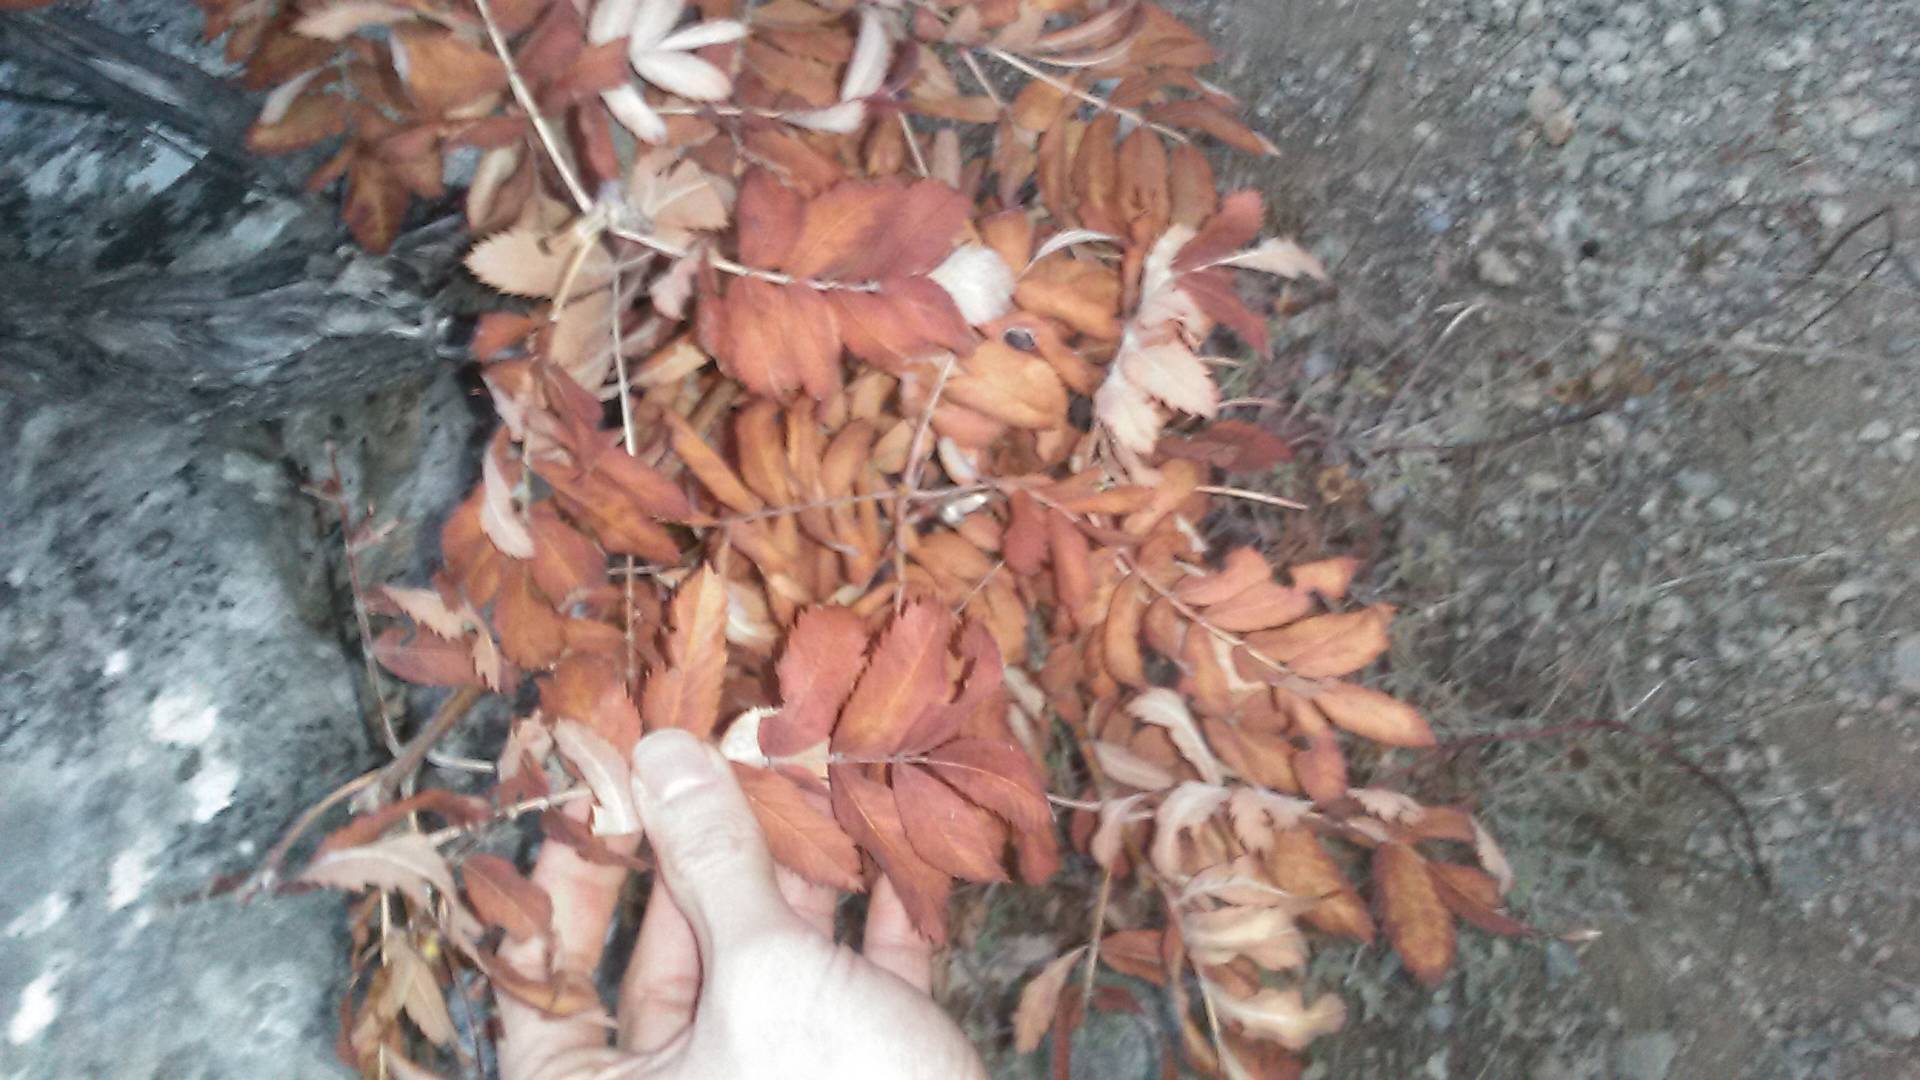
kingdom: Plantae
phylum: Tracheophyta
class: Magnoliopsida
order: Rosales
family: Rosaceae
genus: Cormus
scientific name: Cormus domestica
